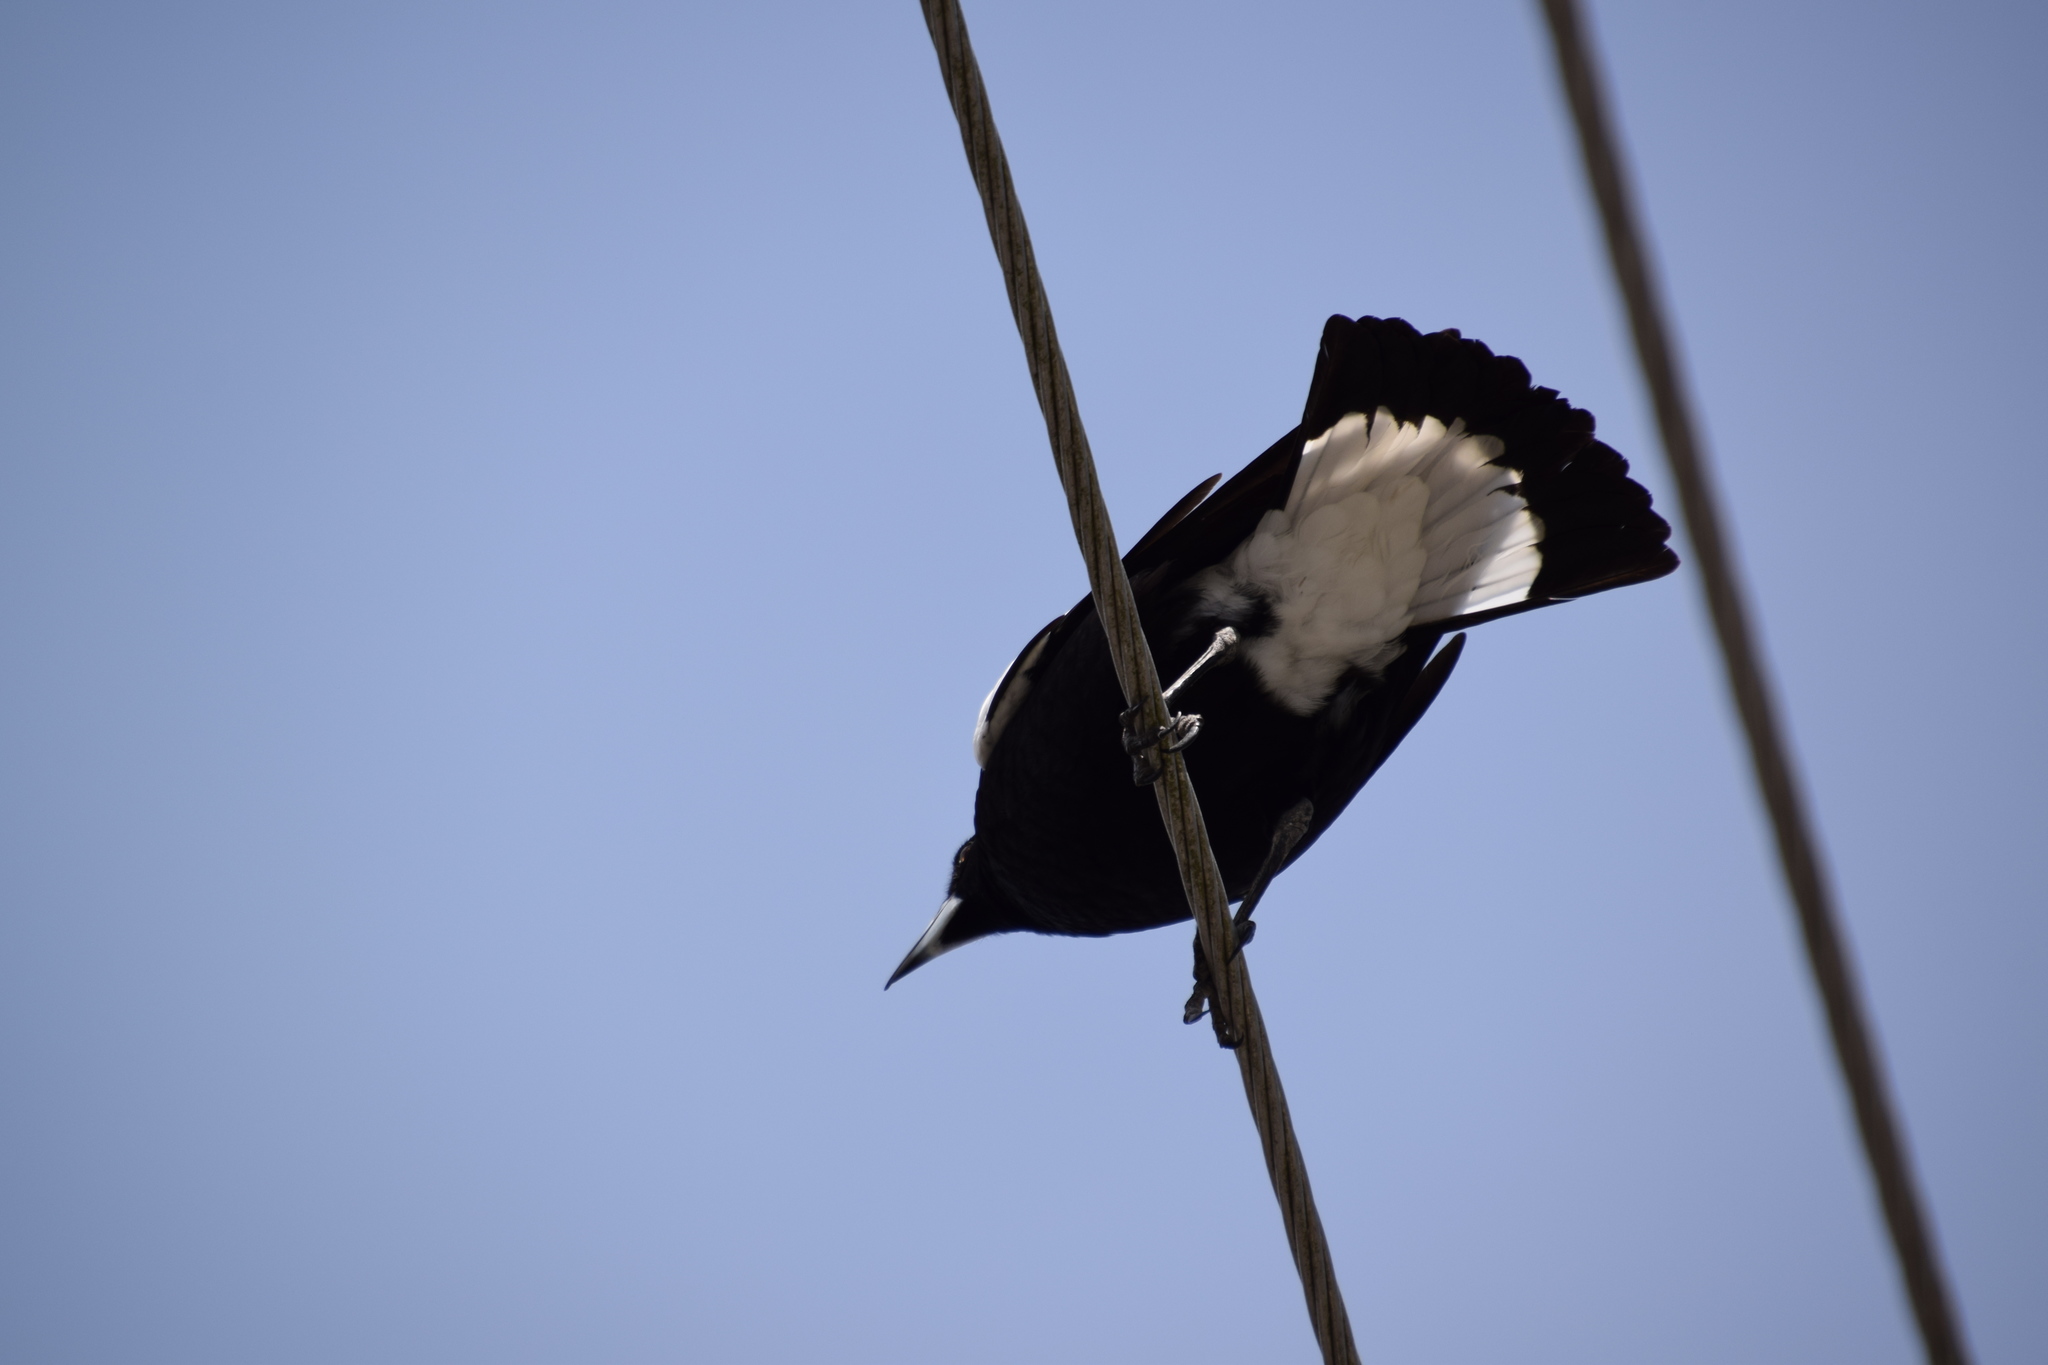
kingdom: Animalia
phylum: Chordata
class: Aves
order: Passeriformes
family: Cracticidae
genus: Gymnorhina
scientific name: Gymnorhina tibicen
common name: Australian magpie
